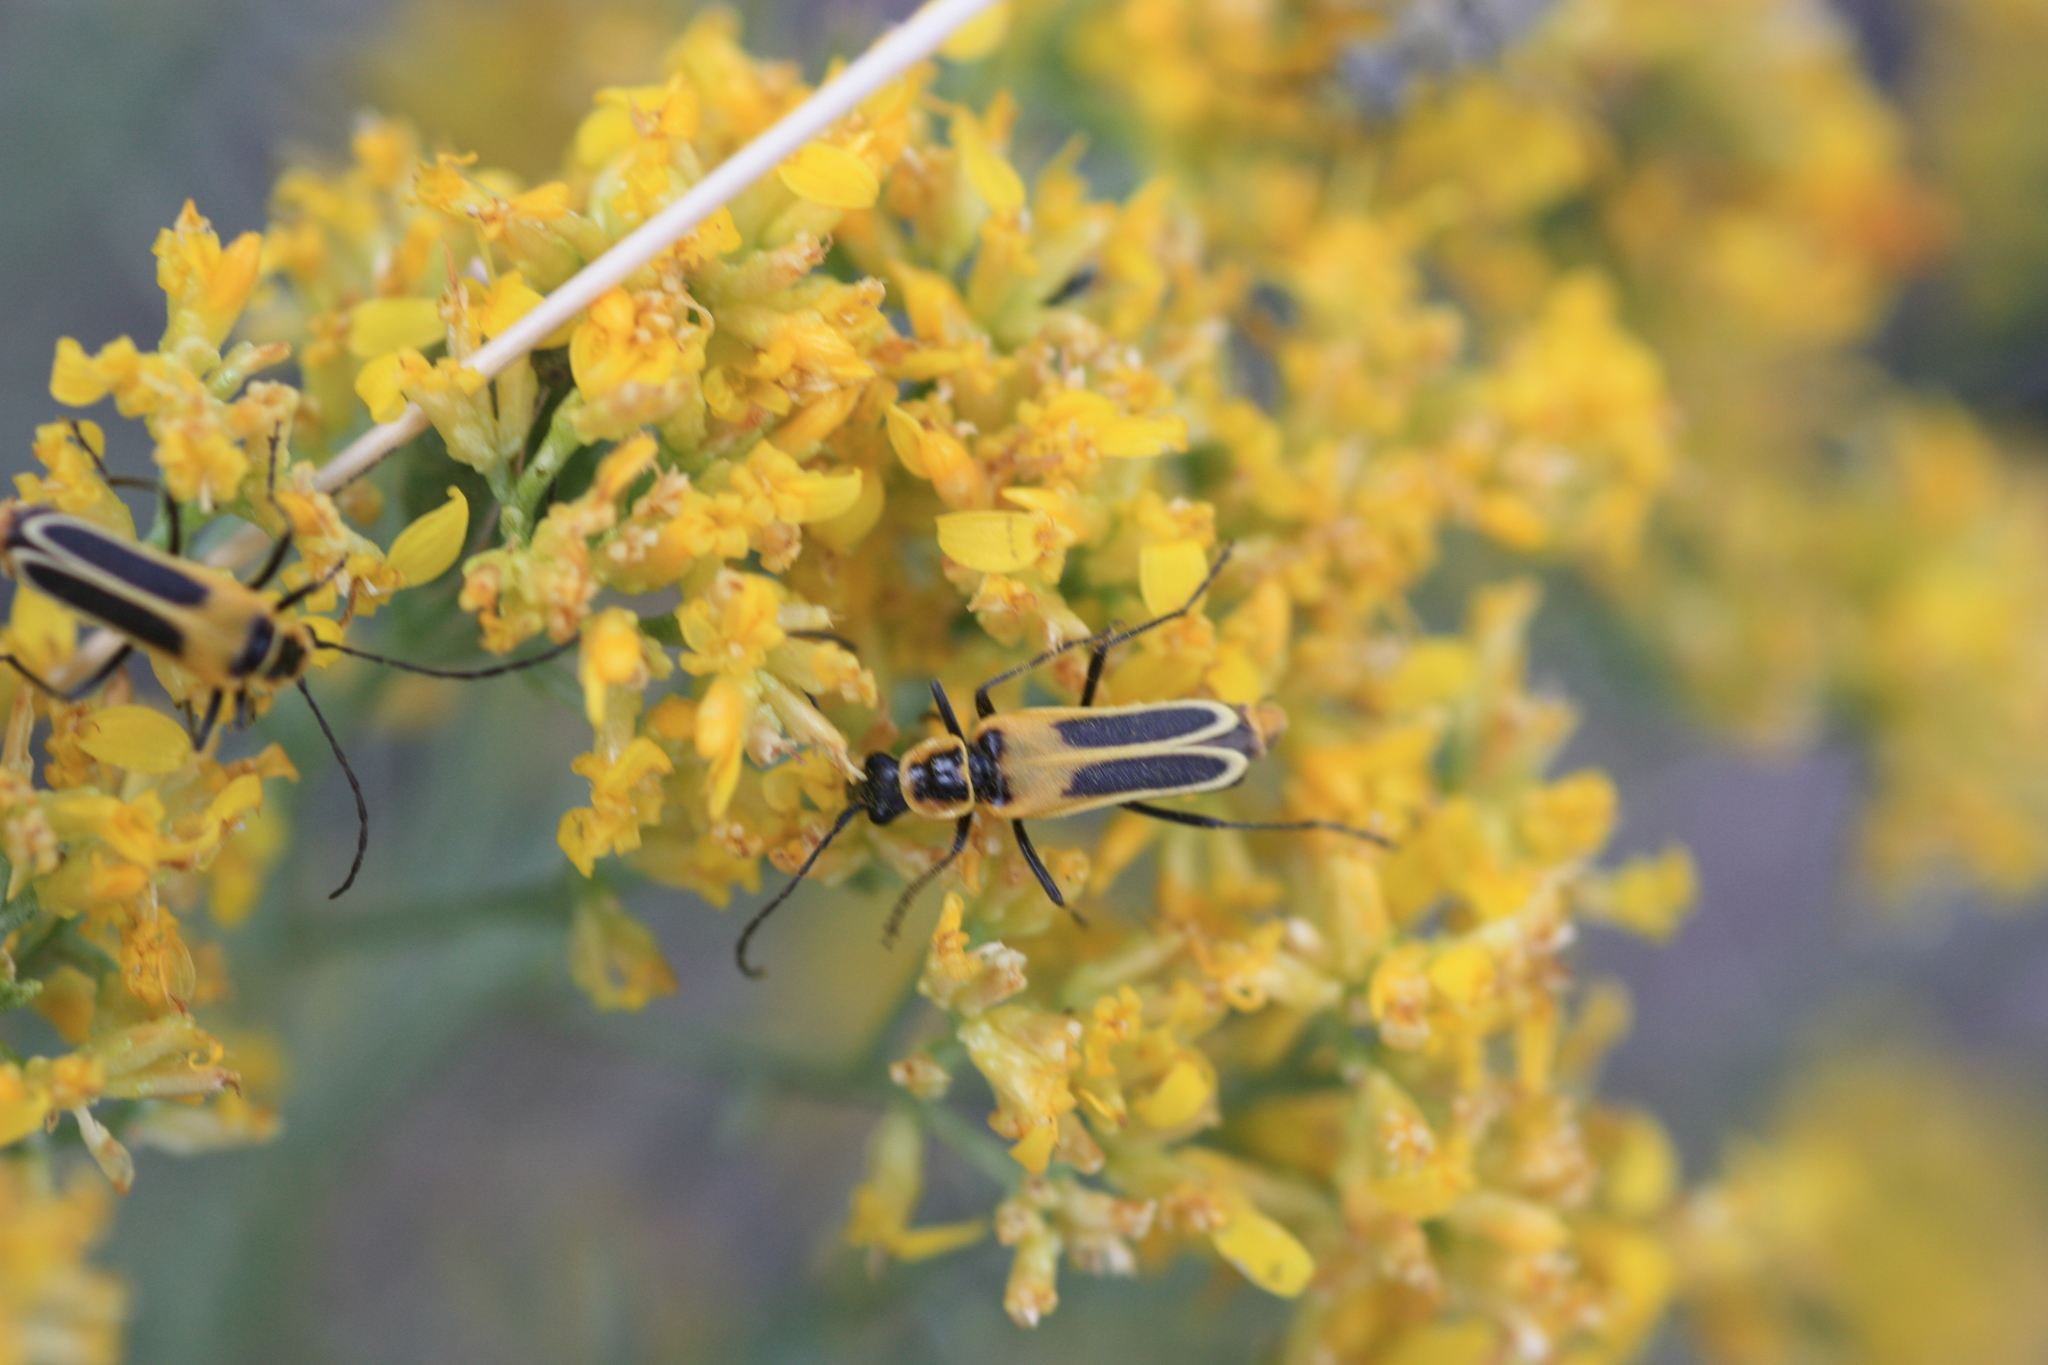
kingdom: Animalia
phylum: Arthropoda
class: Insecta
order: Coleoptera
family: Cantharidae
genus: Chauliognathus
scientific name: Chauliognathus lewisi
